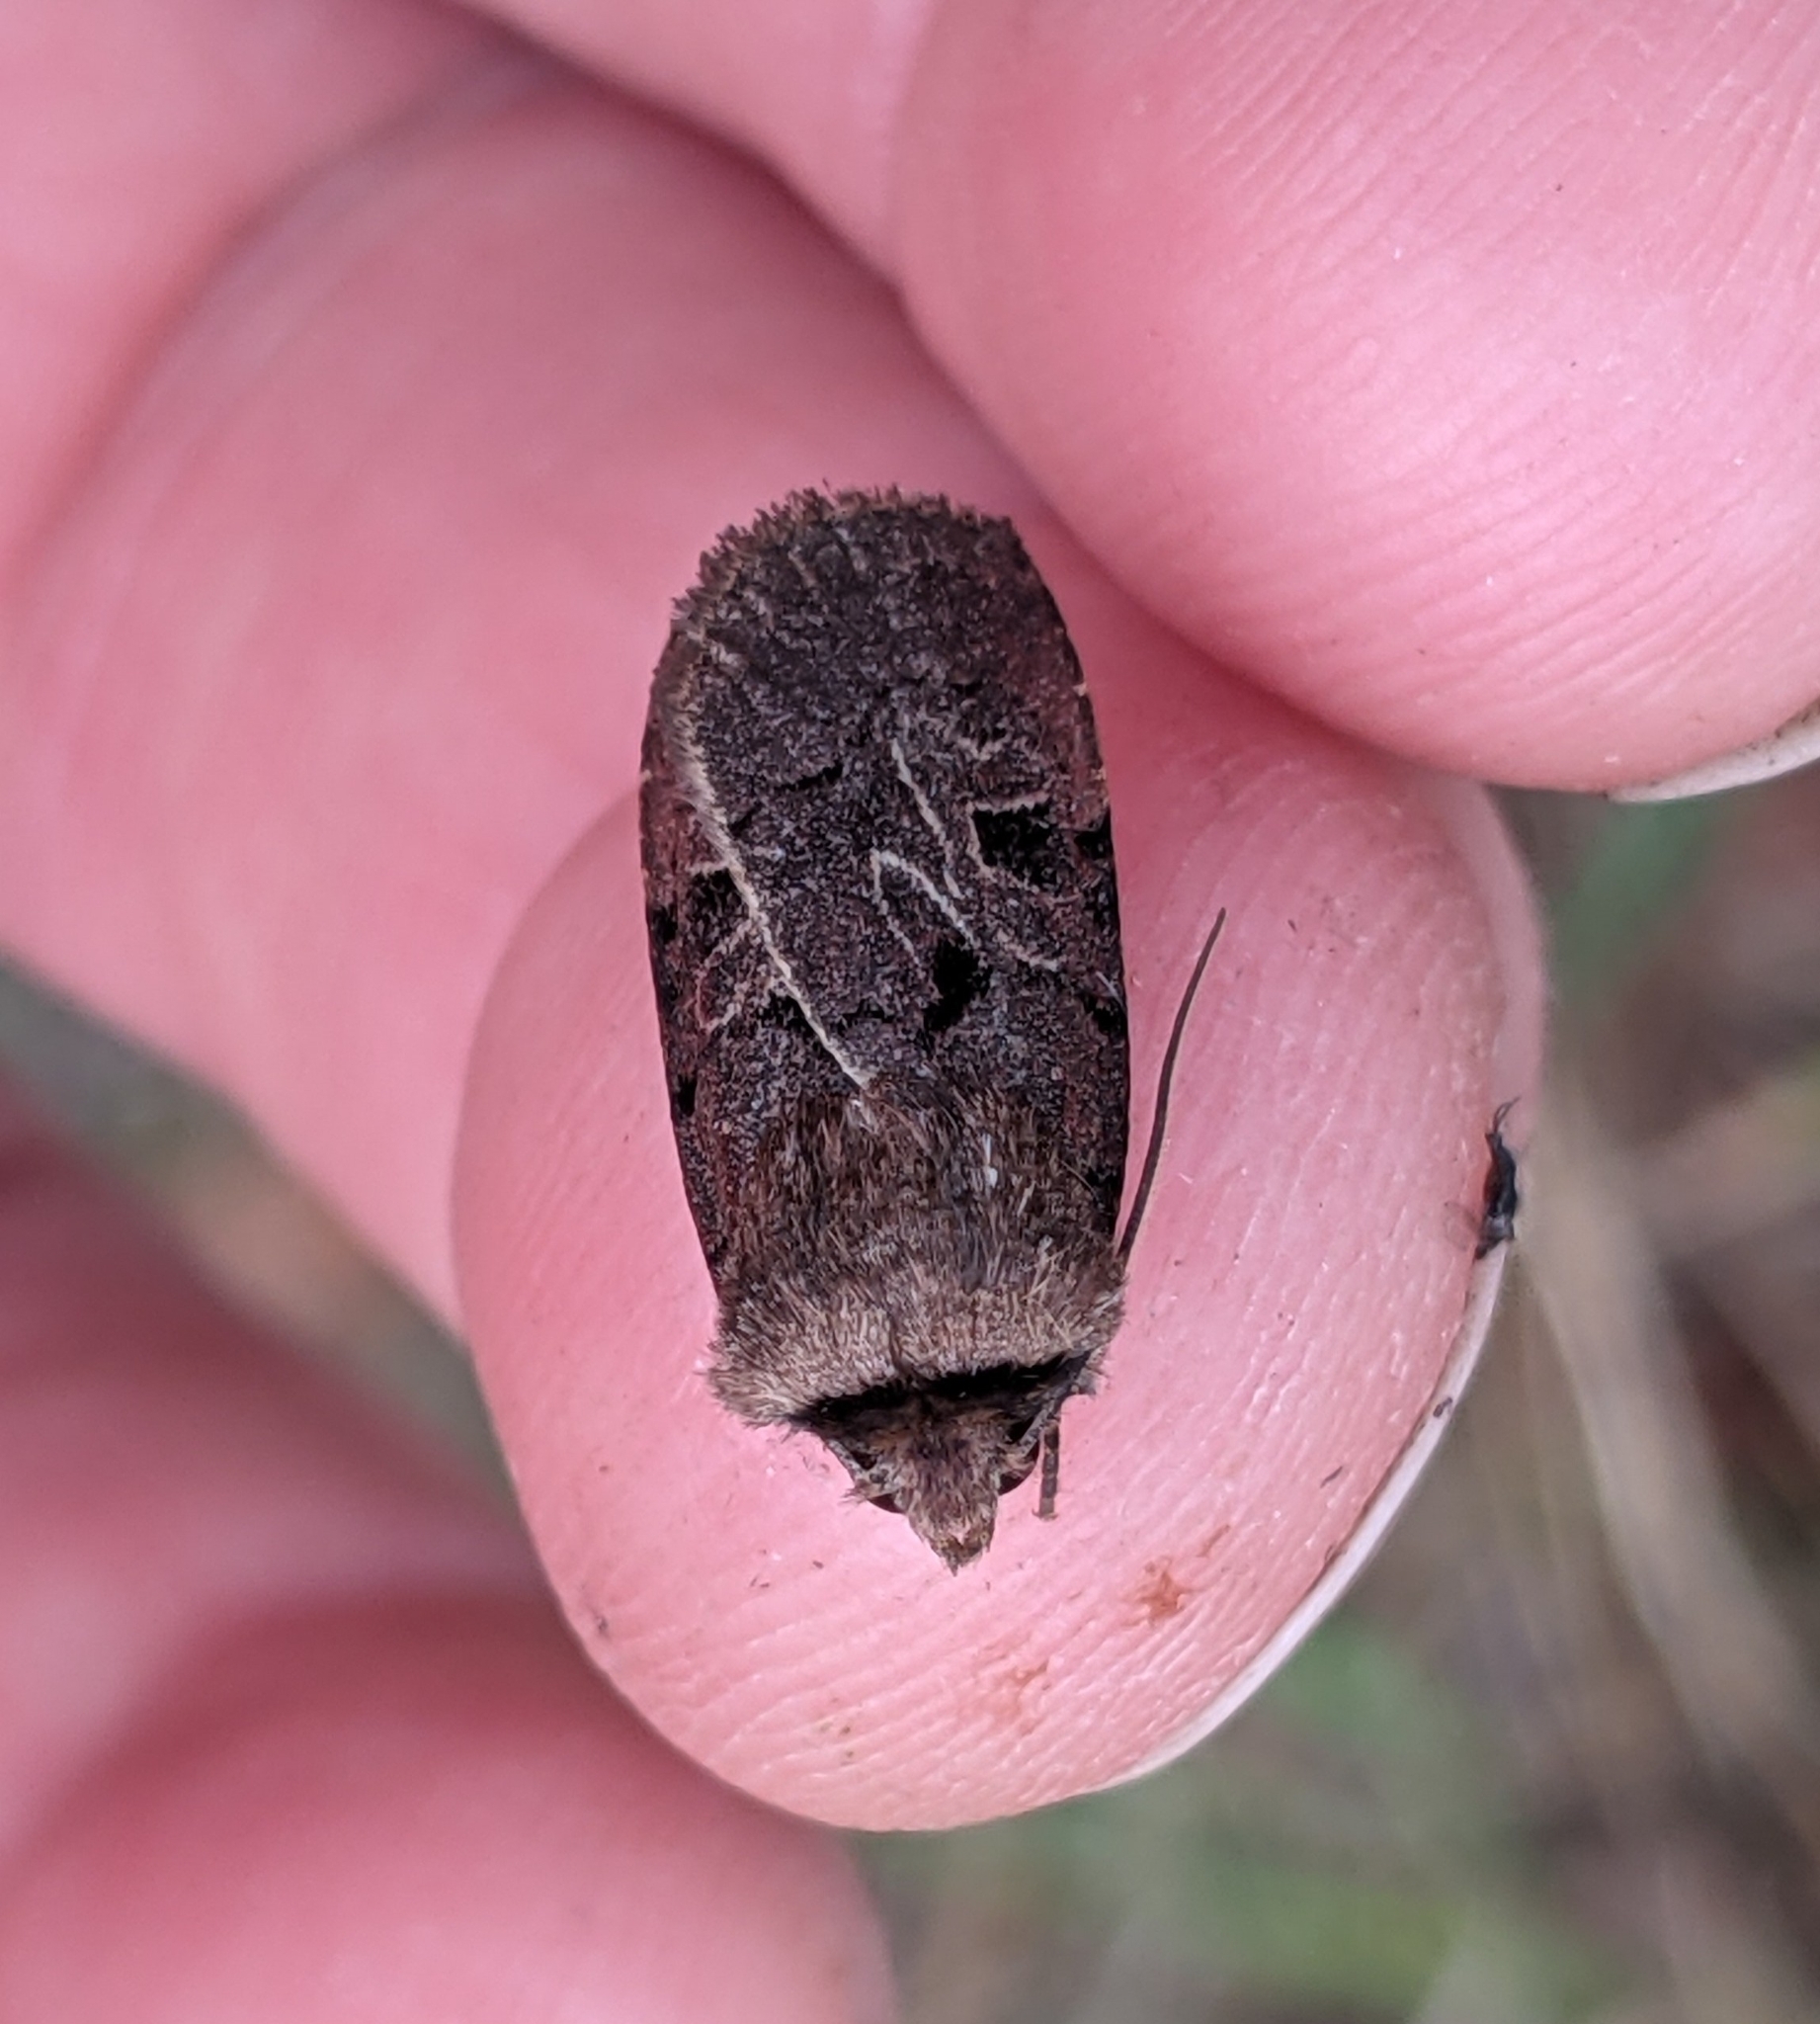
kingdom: Animalia
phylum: Arthropoda
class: Insecta
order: Lepidoptera
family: Noctuidae
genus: Chersotis
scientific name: Chersotis juncta
